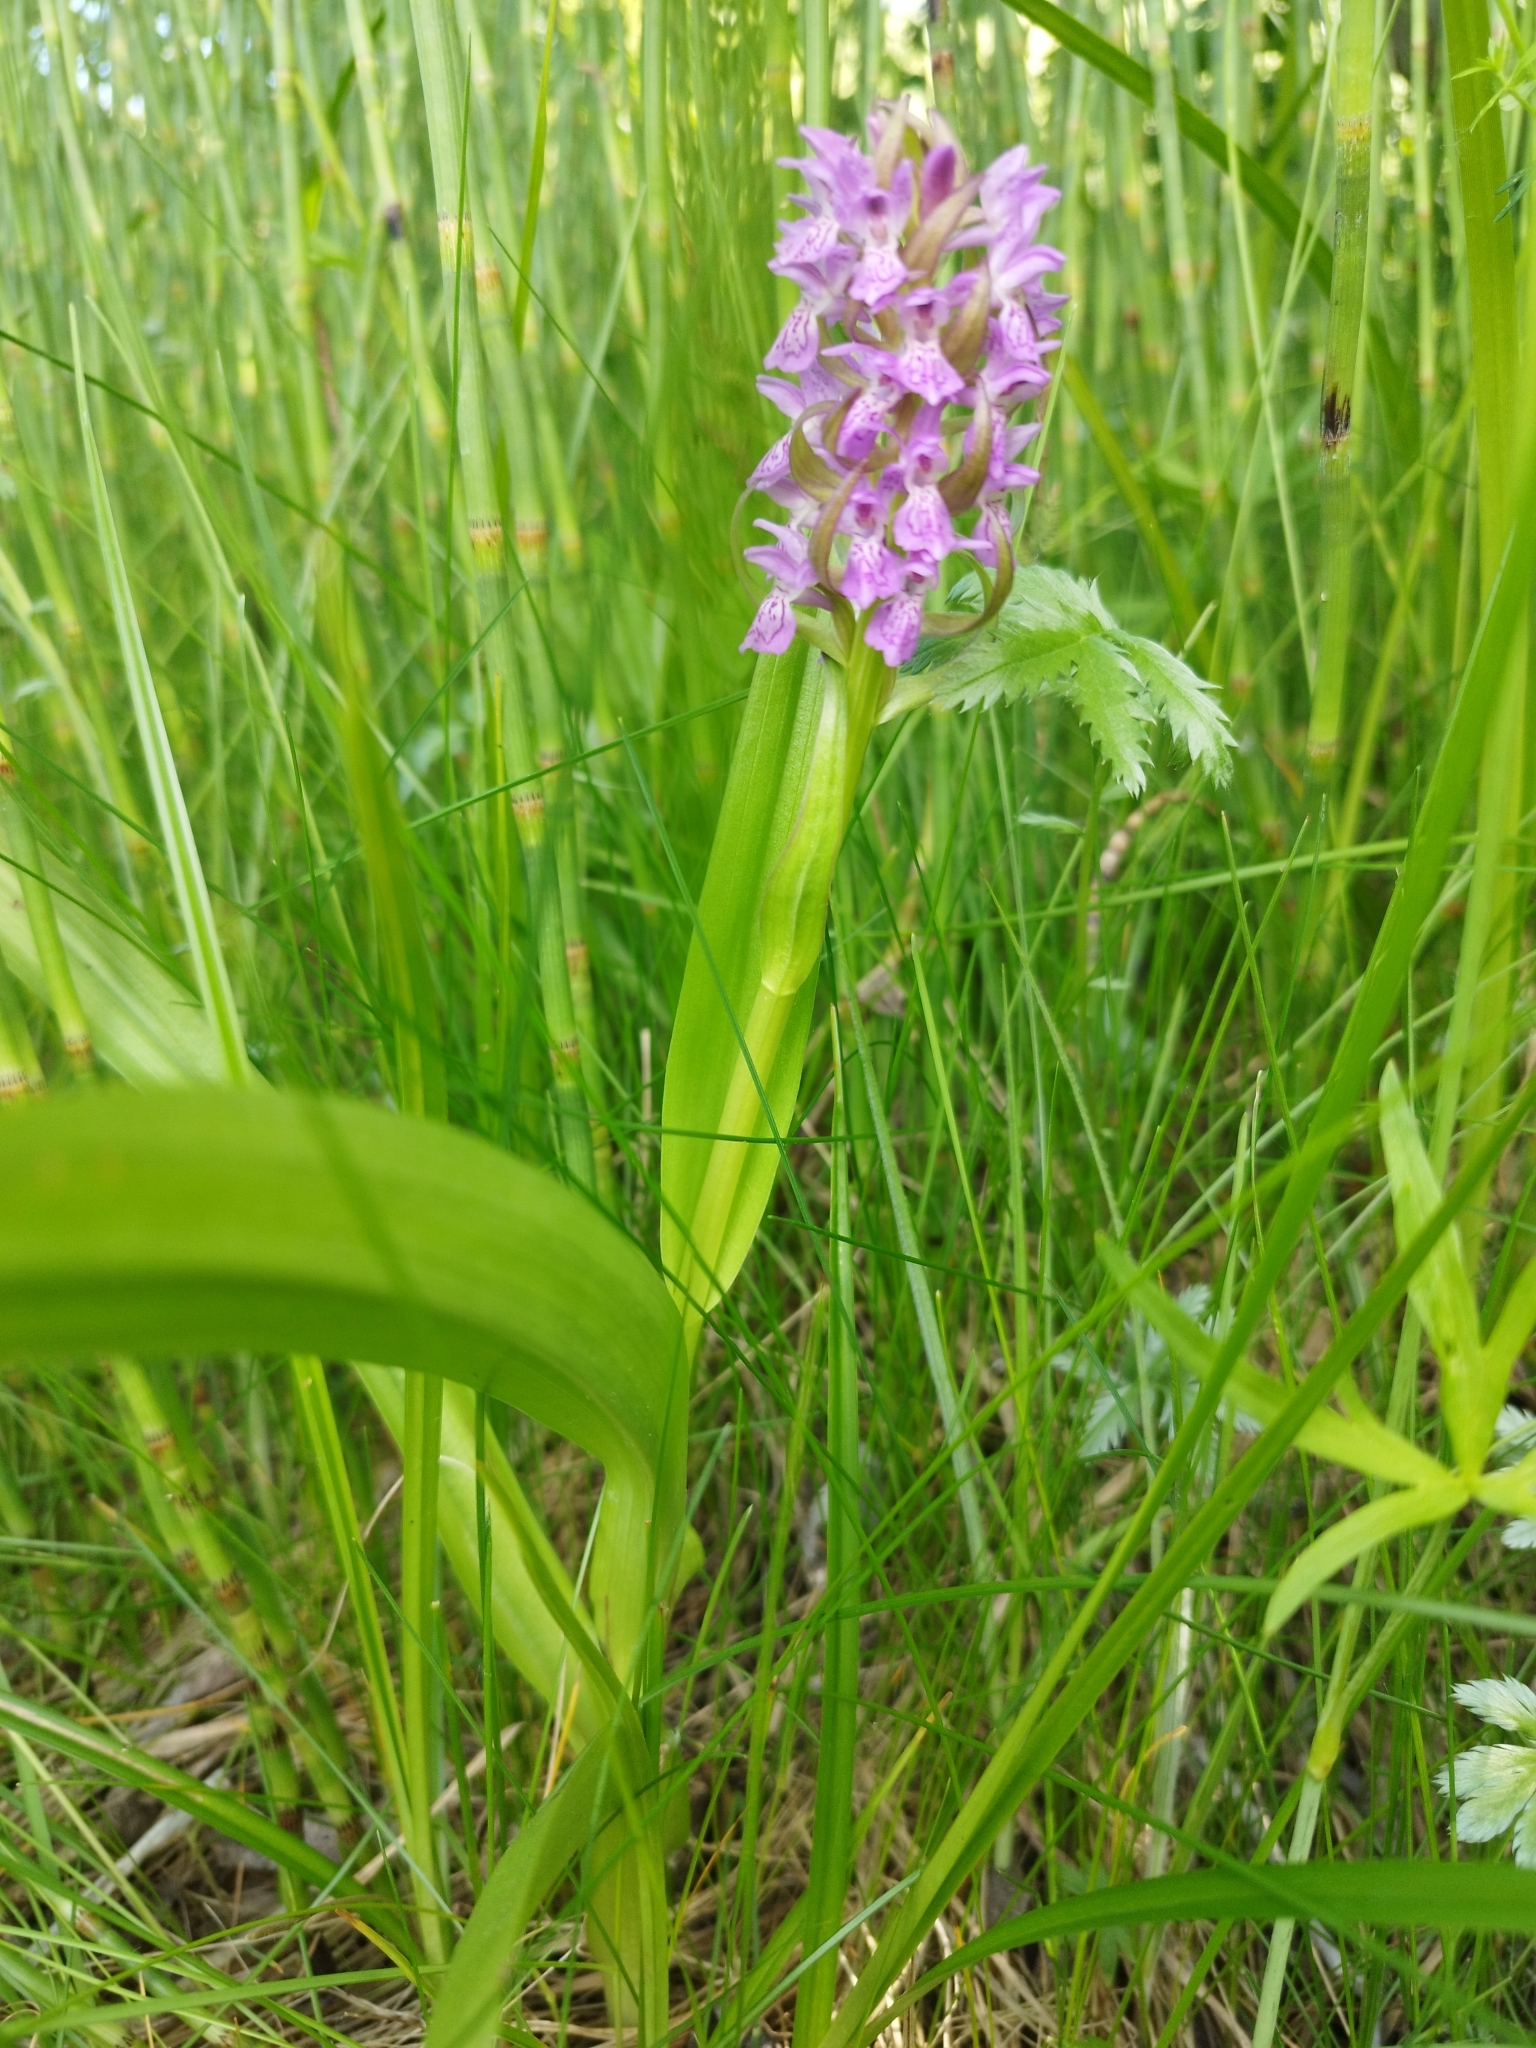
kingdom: Plantae
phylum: Tracheophyta
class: Liliopsida
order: Asparagales
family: Orchidaceae
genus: Dactylorhiza
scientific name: Dactylorhiza incarnata
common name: Early marsh-orchid
